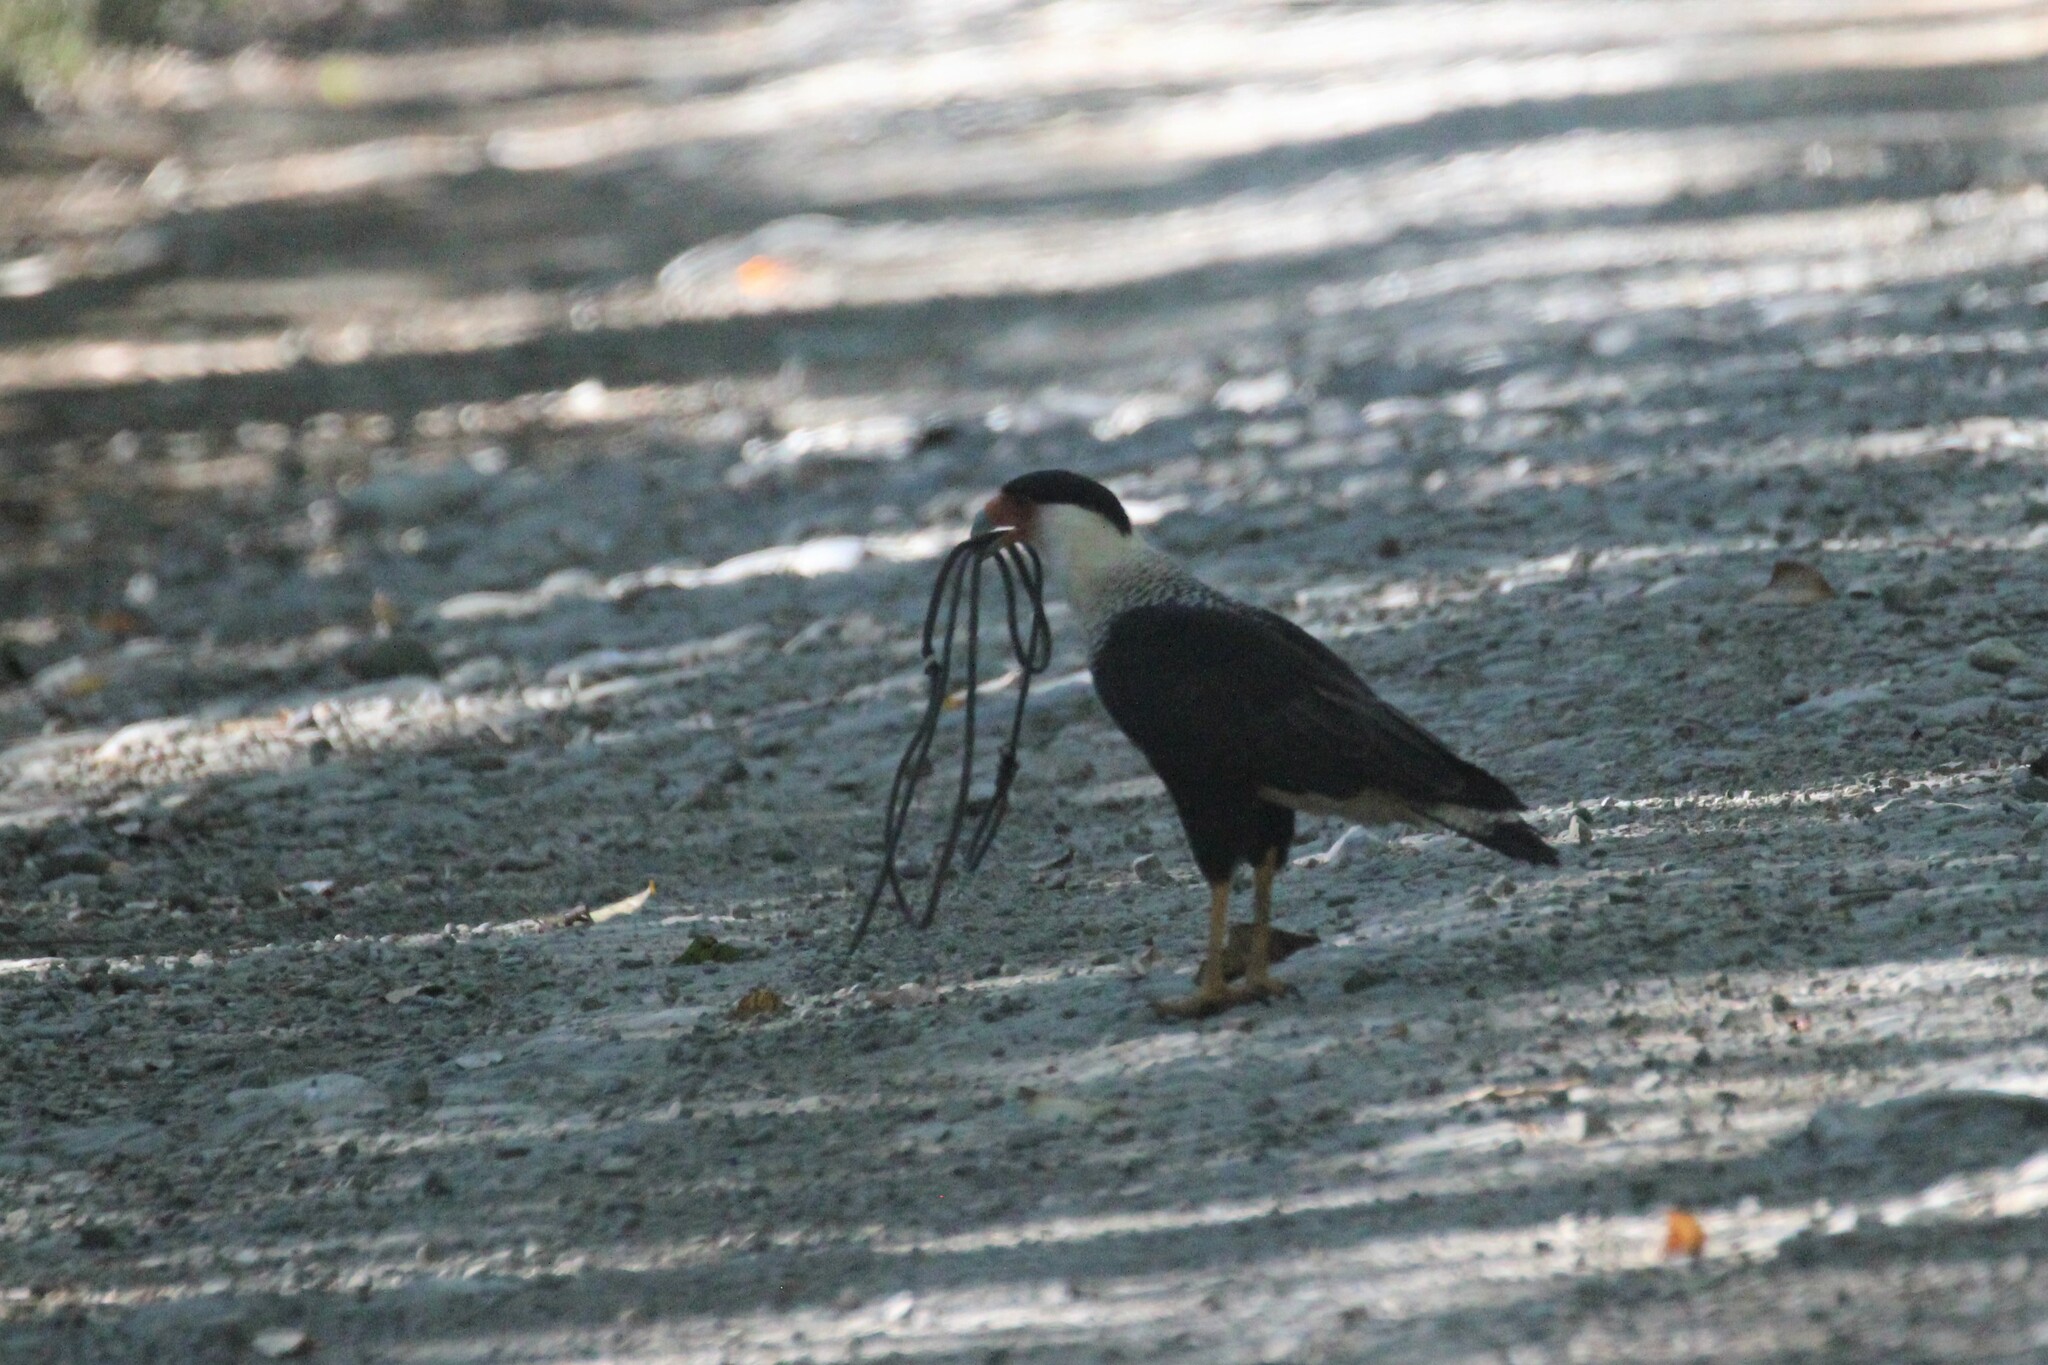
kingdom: Animalia
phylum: Chordata
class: Aves
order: Falconiformes
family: Falconidae
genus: Caracara
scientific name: Caracara plancus
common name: Southern caracara
